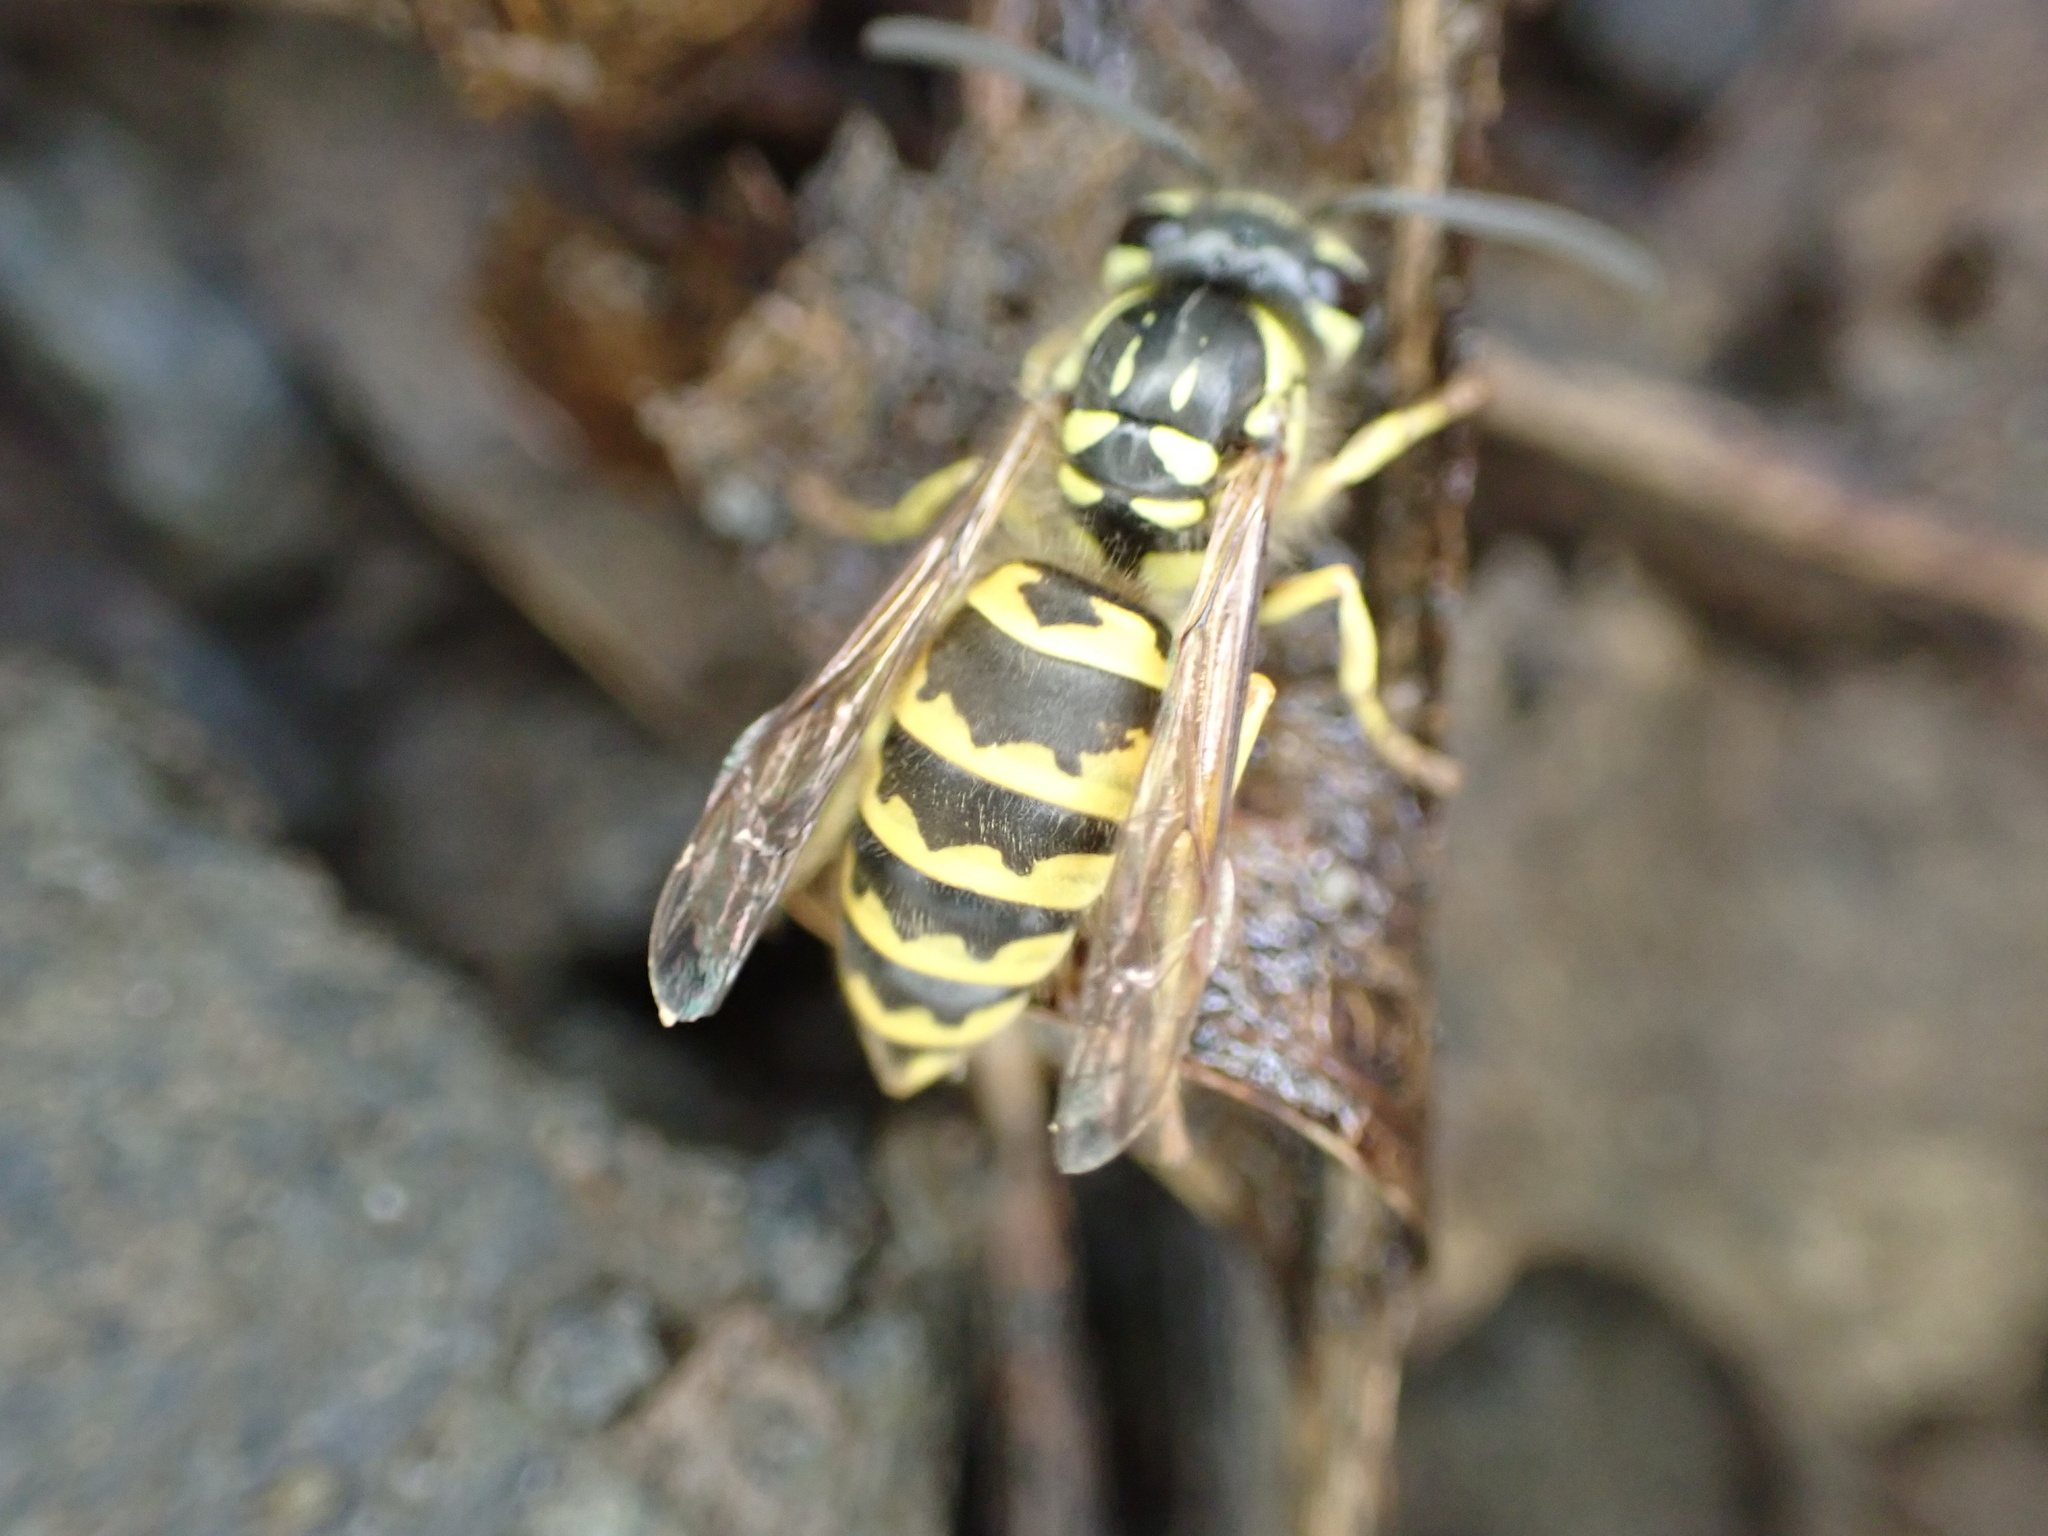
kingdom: Animalia
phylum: Arthropoda
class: Insecta
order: Hymenoptera
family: Vespidae
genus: Vespula
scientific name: Vespula flavopilosa
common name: Downy yellowjacket
